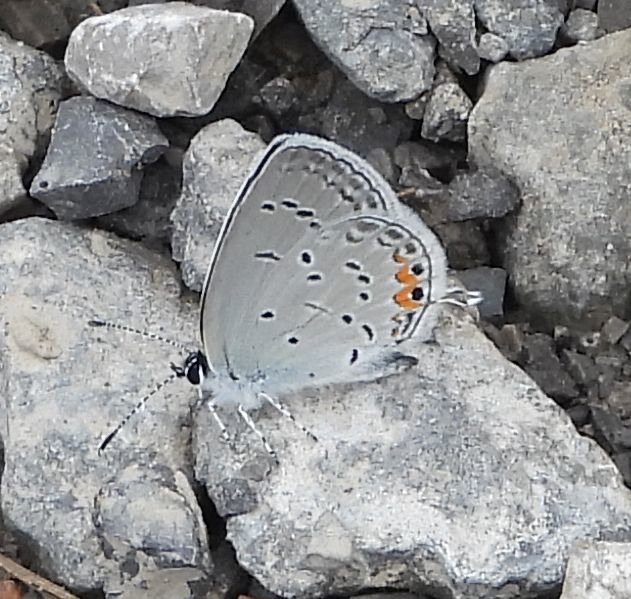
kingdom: Animalia
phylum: Arthropoda
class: Insecta
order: Lepidoptera
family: Lycaenidae
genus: Elkalyce
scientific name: Elkalyce comyntas
